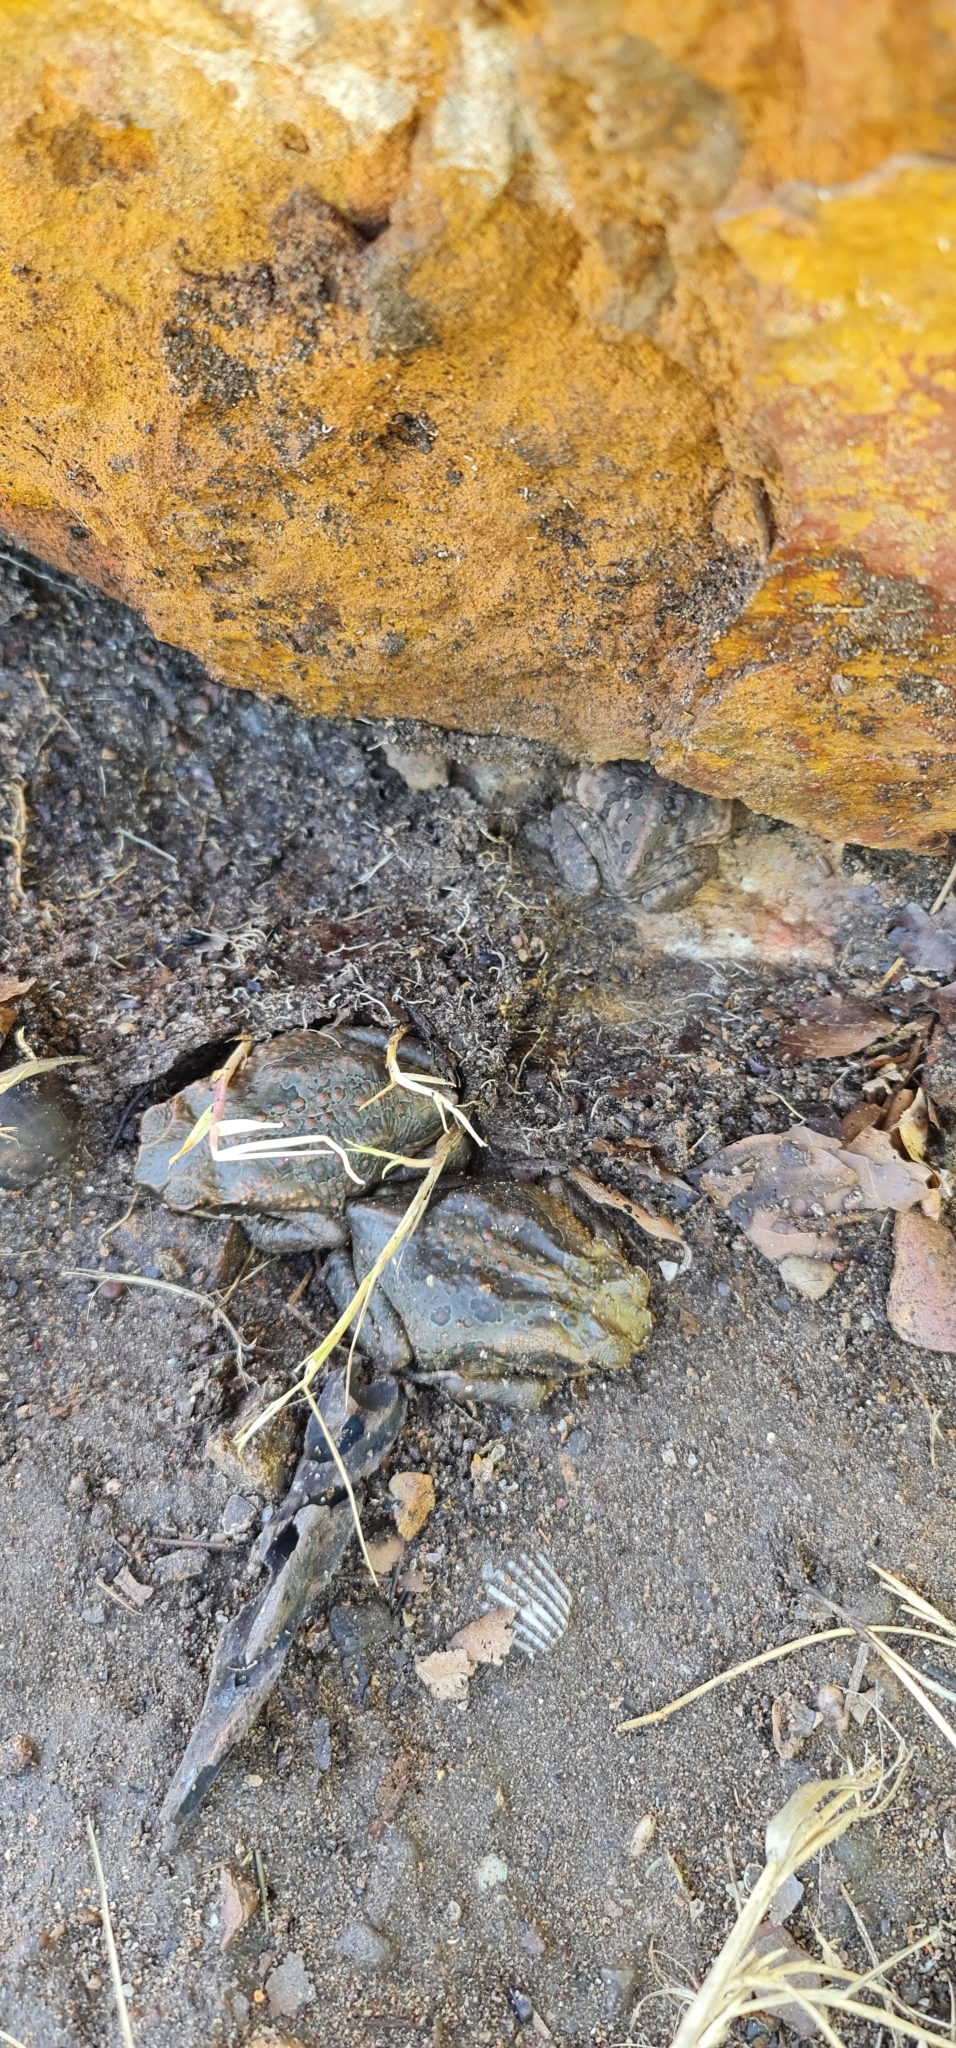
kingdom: Animalia
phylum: Chordata
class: Amphibia
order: Anura
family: Bufonidae
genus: Rhinella
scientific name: Rhinella marina
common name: Cane toad
